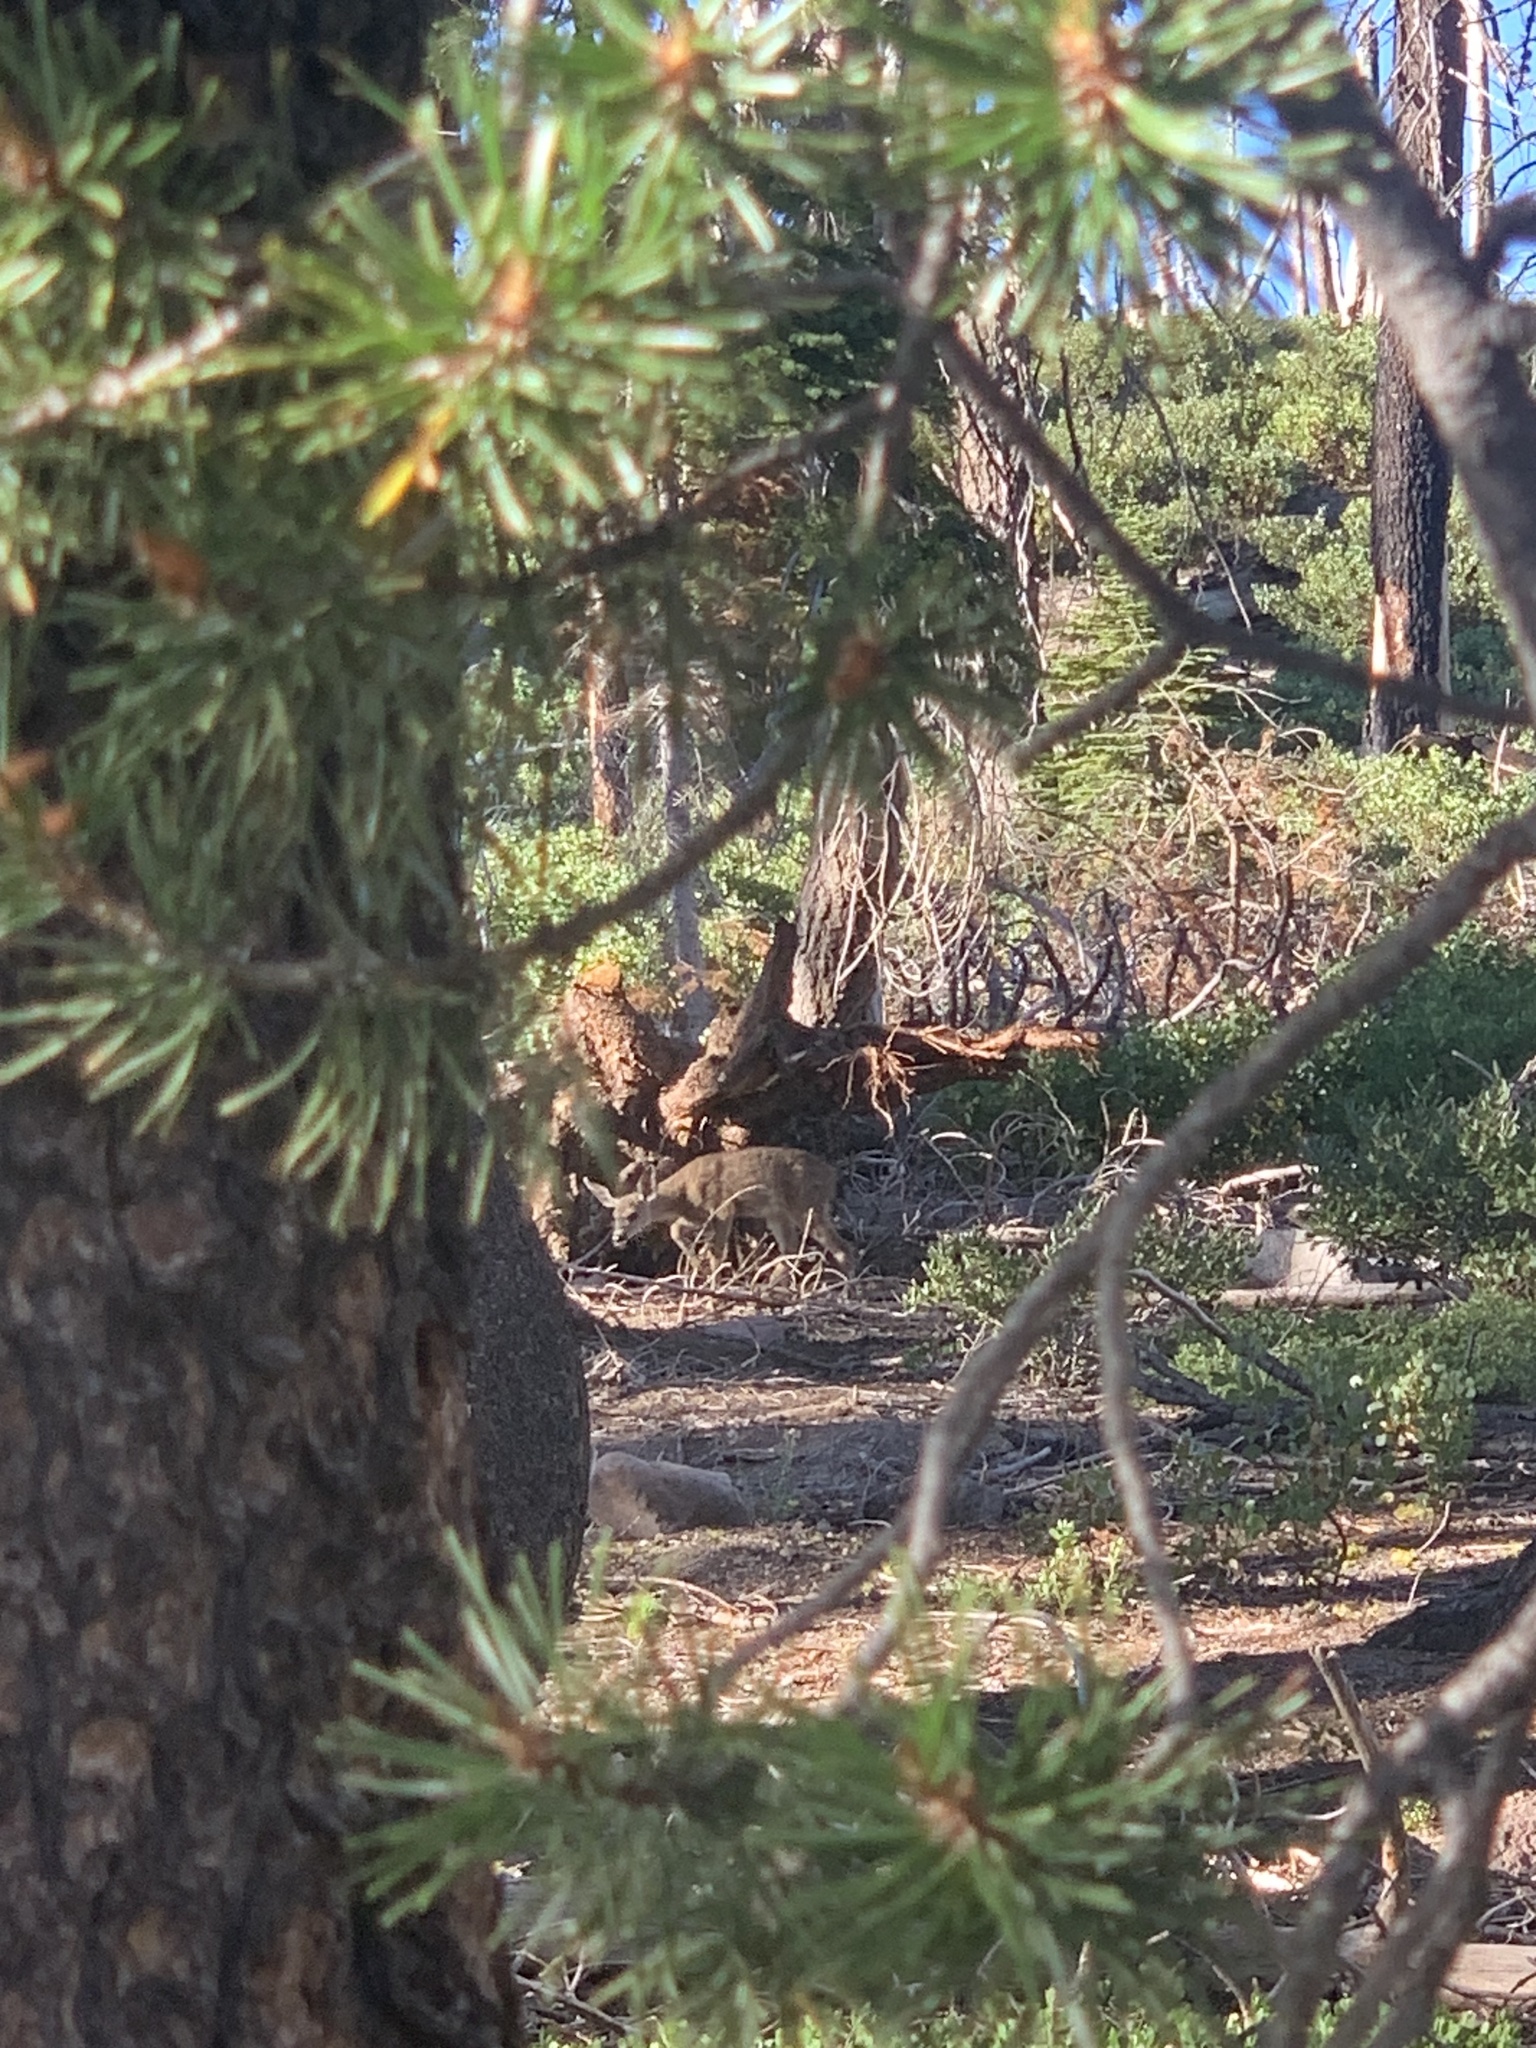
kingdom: Animalia
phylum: Chordata
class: Mammalia
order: Artiodactyla
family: Cervidae
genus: Odocoileus
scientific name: Odocoileus hemionus
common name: Mule deer
